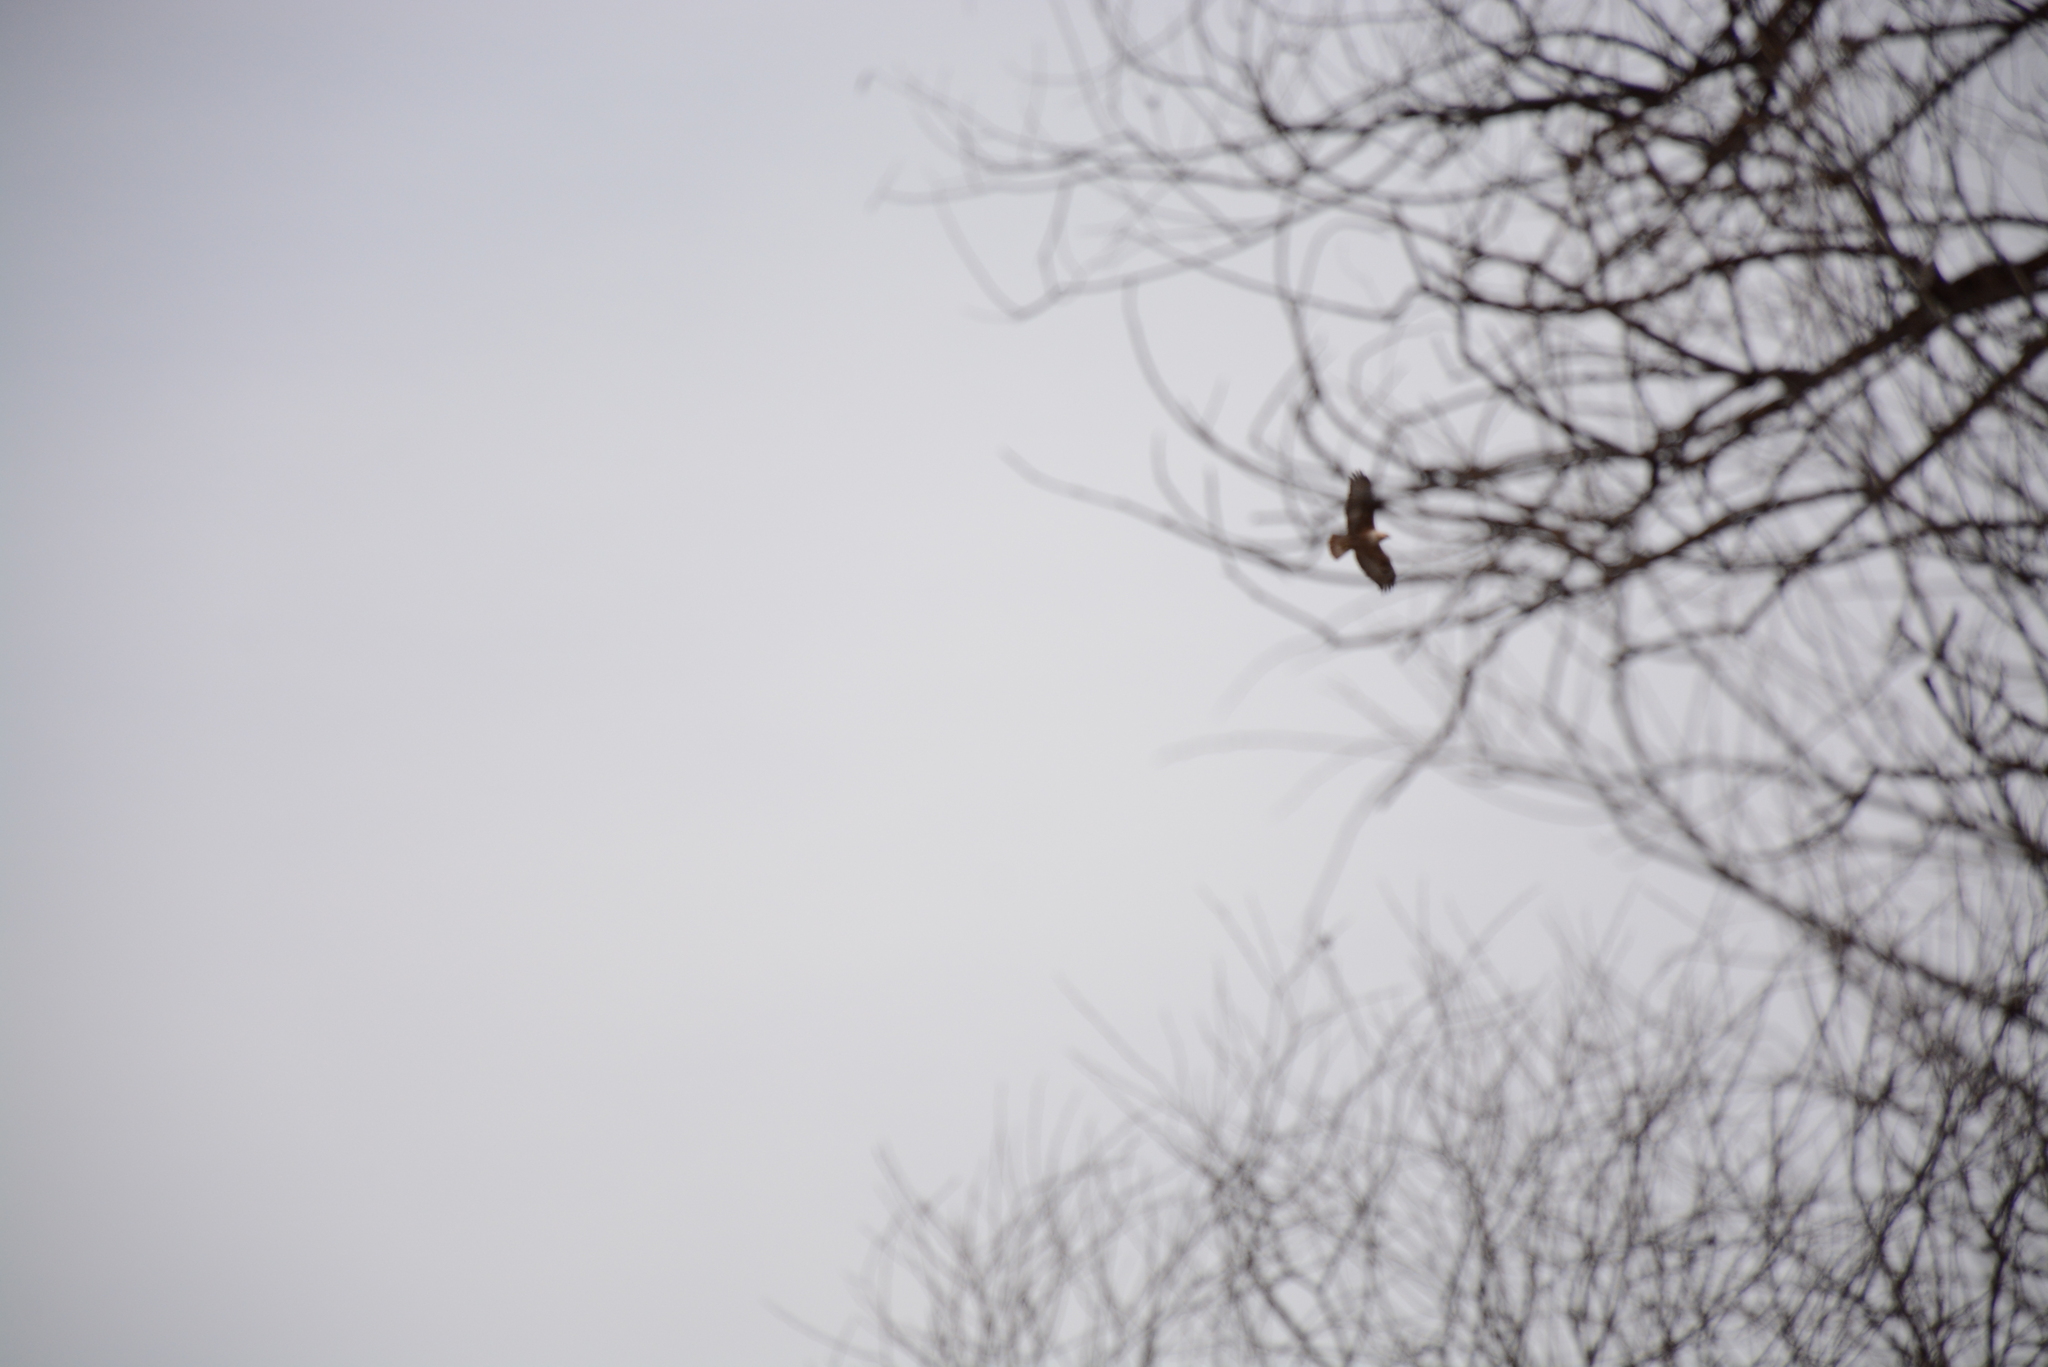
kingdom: Animalia
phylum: Chordata
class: Aves
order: Accipitriformes
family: Accipitridae
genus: Buteo
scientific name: Buteo rufinus
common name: Long-legged buzzard
